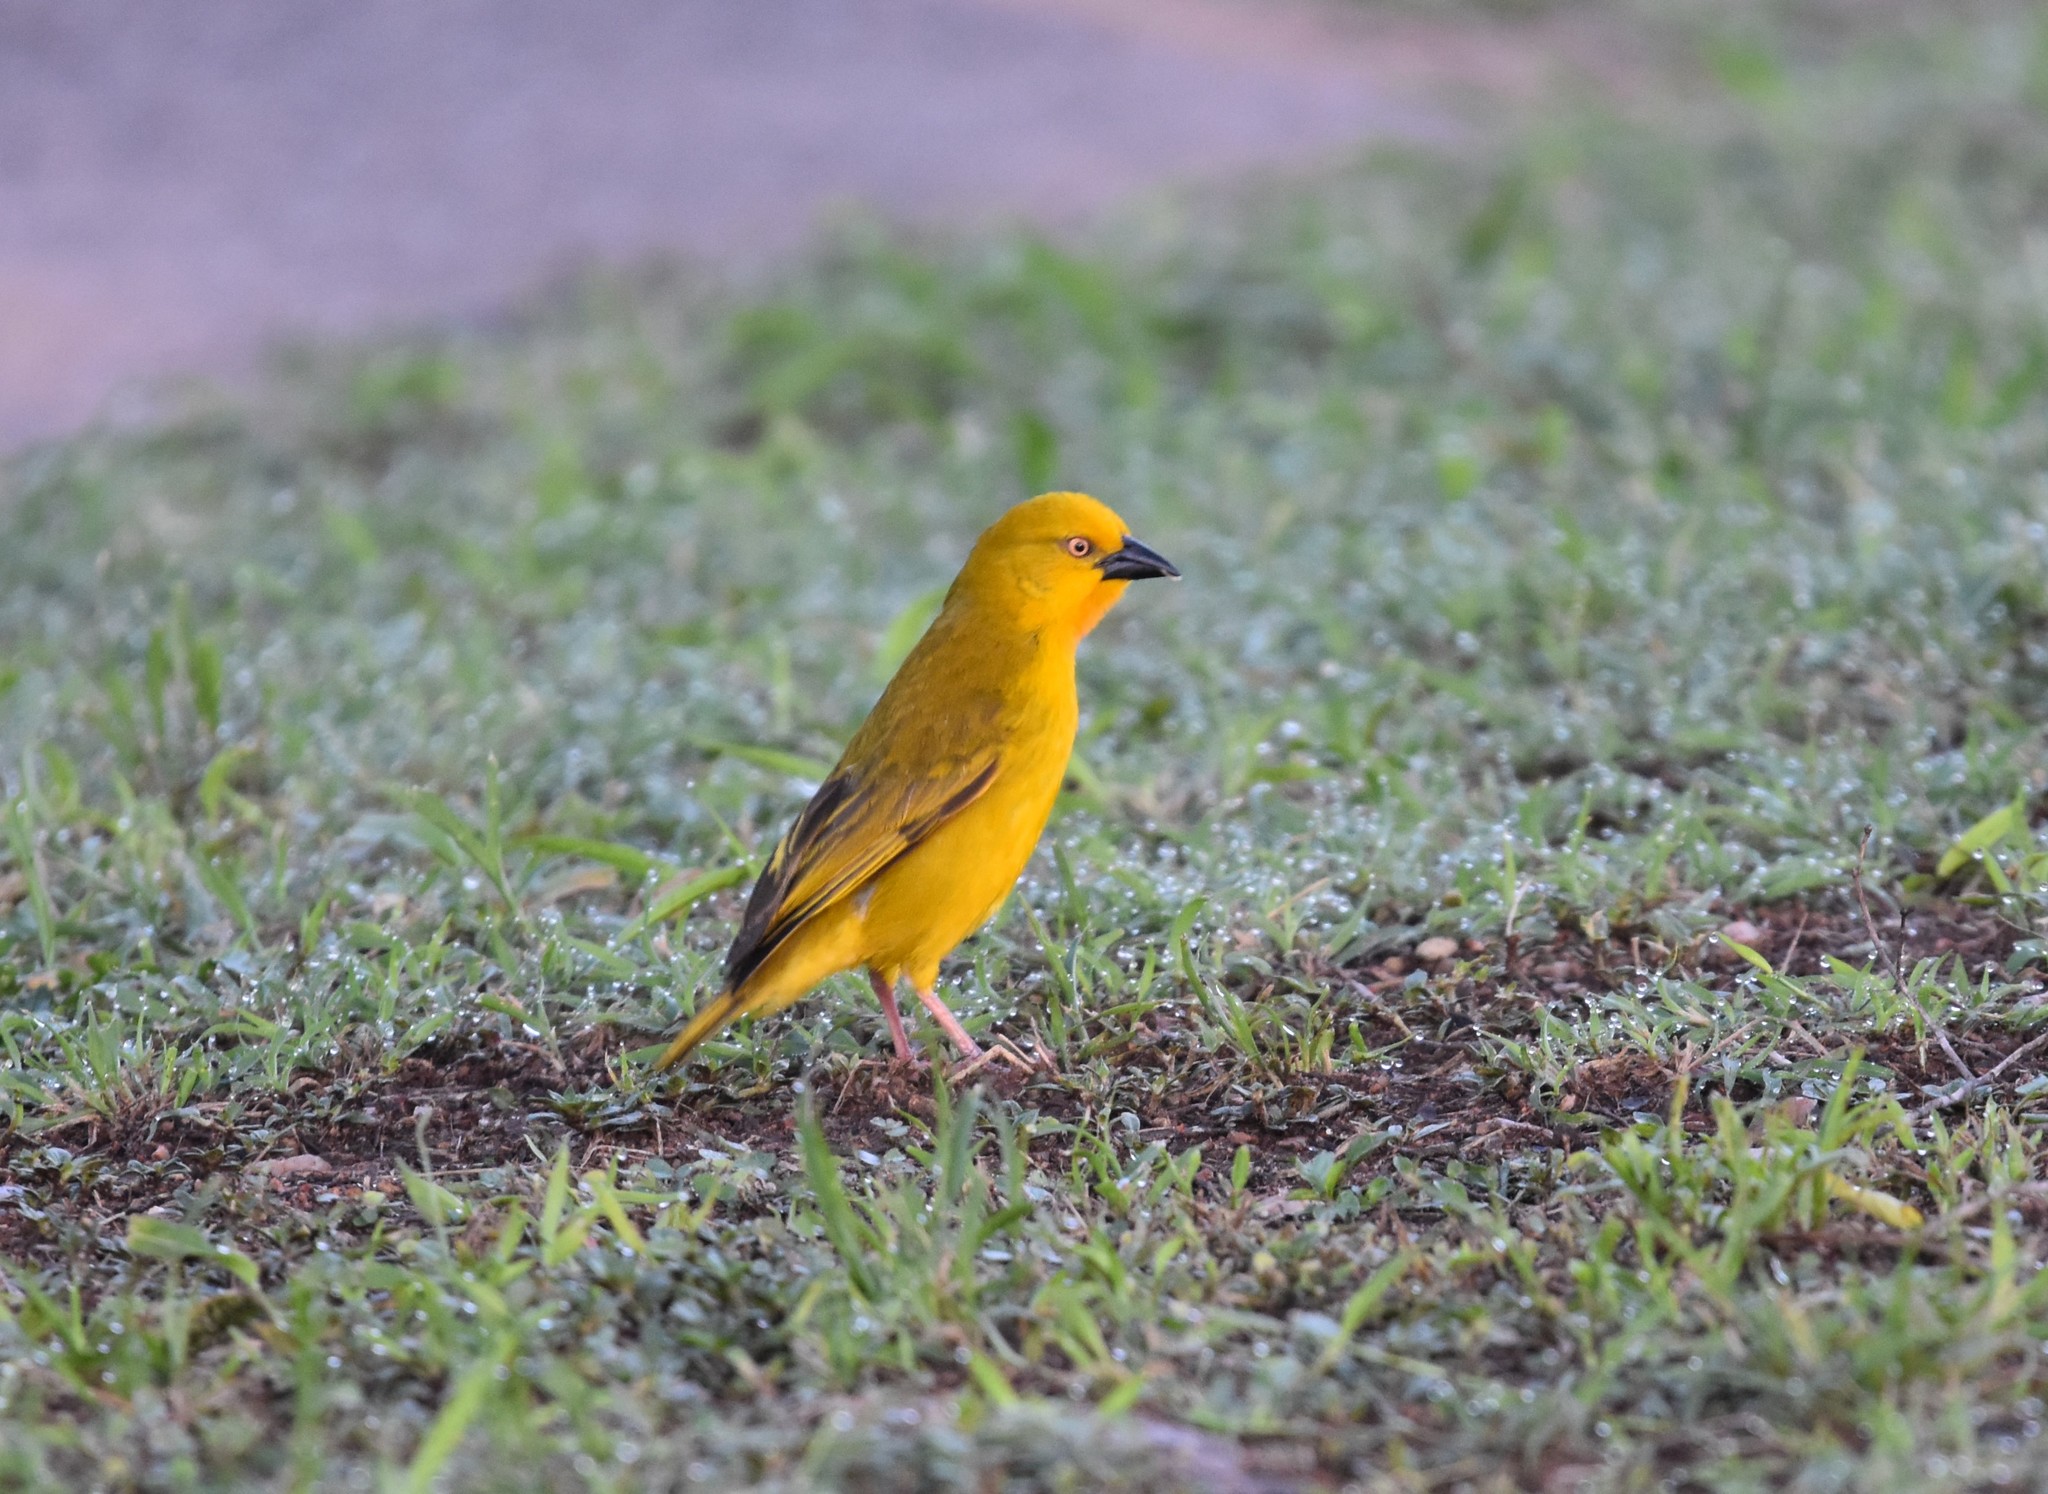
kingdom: Animalia
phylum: Chordata
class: Aves
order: Passeriformes
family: Ploceidae
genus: Ploceus
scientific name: Ploceus xanthops
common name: Holub's golden weaver
